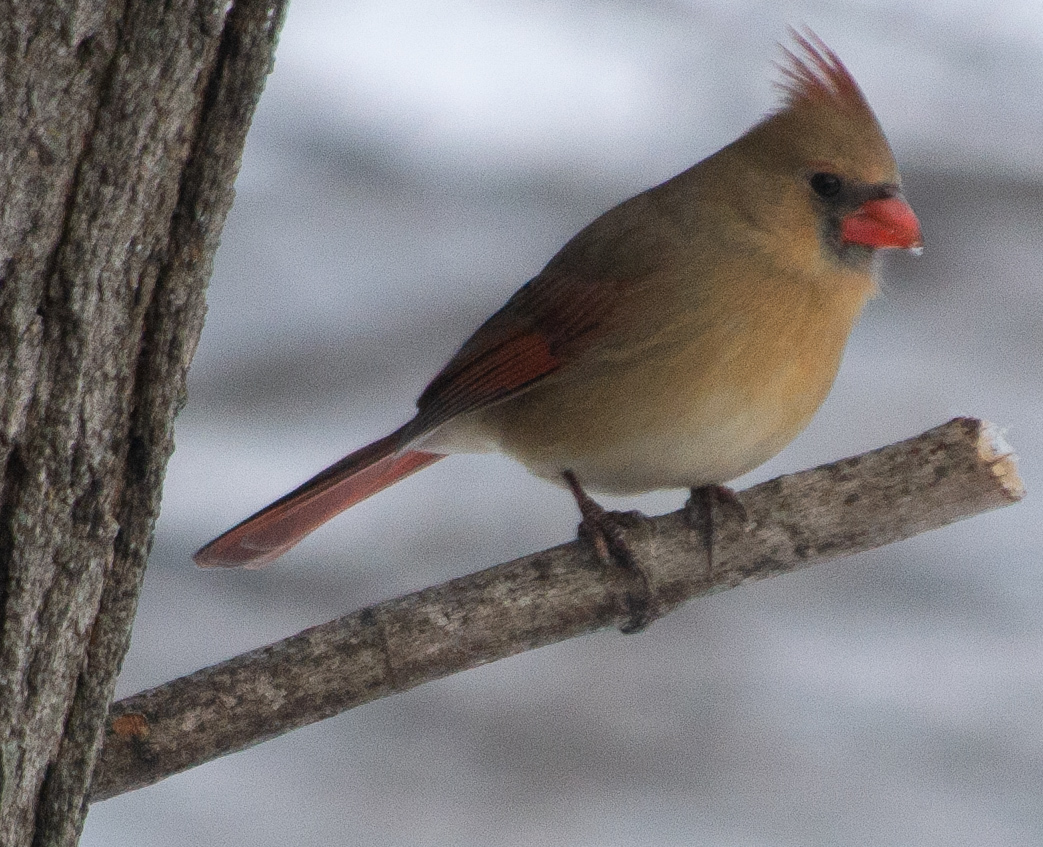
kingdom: Animalia
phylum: Chordata
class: Aves
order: Passeriformes
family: Cardinalidae
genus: Cardinalis
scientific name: Cardinalis cardinalis
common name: Northern cardinal
